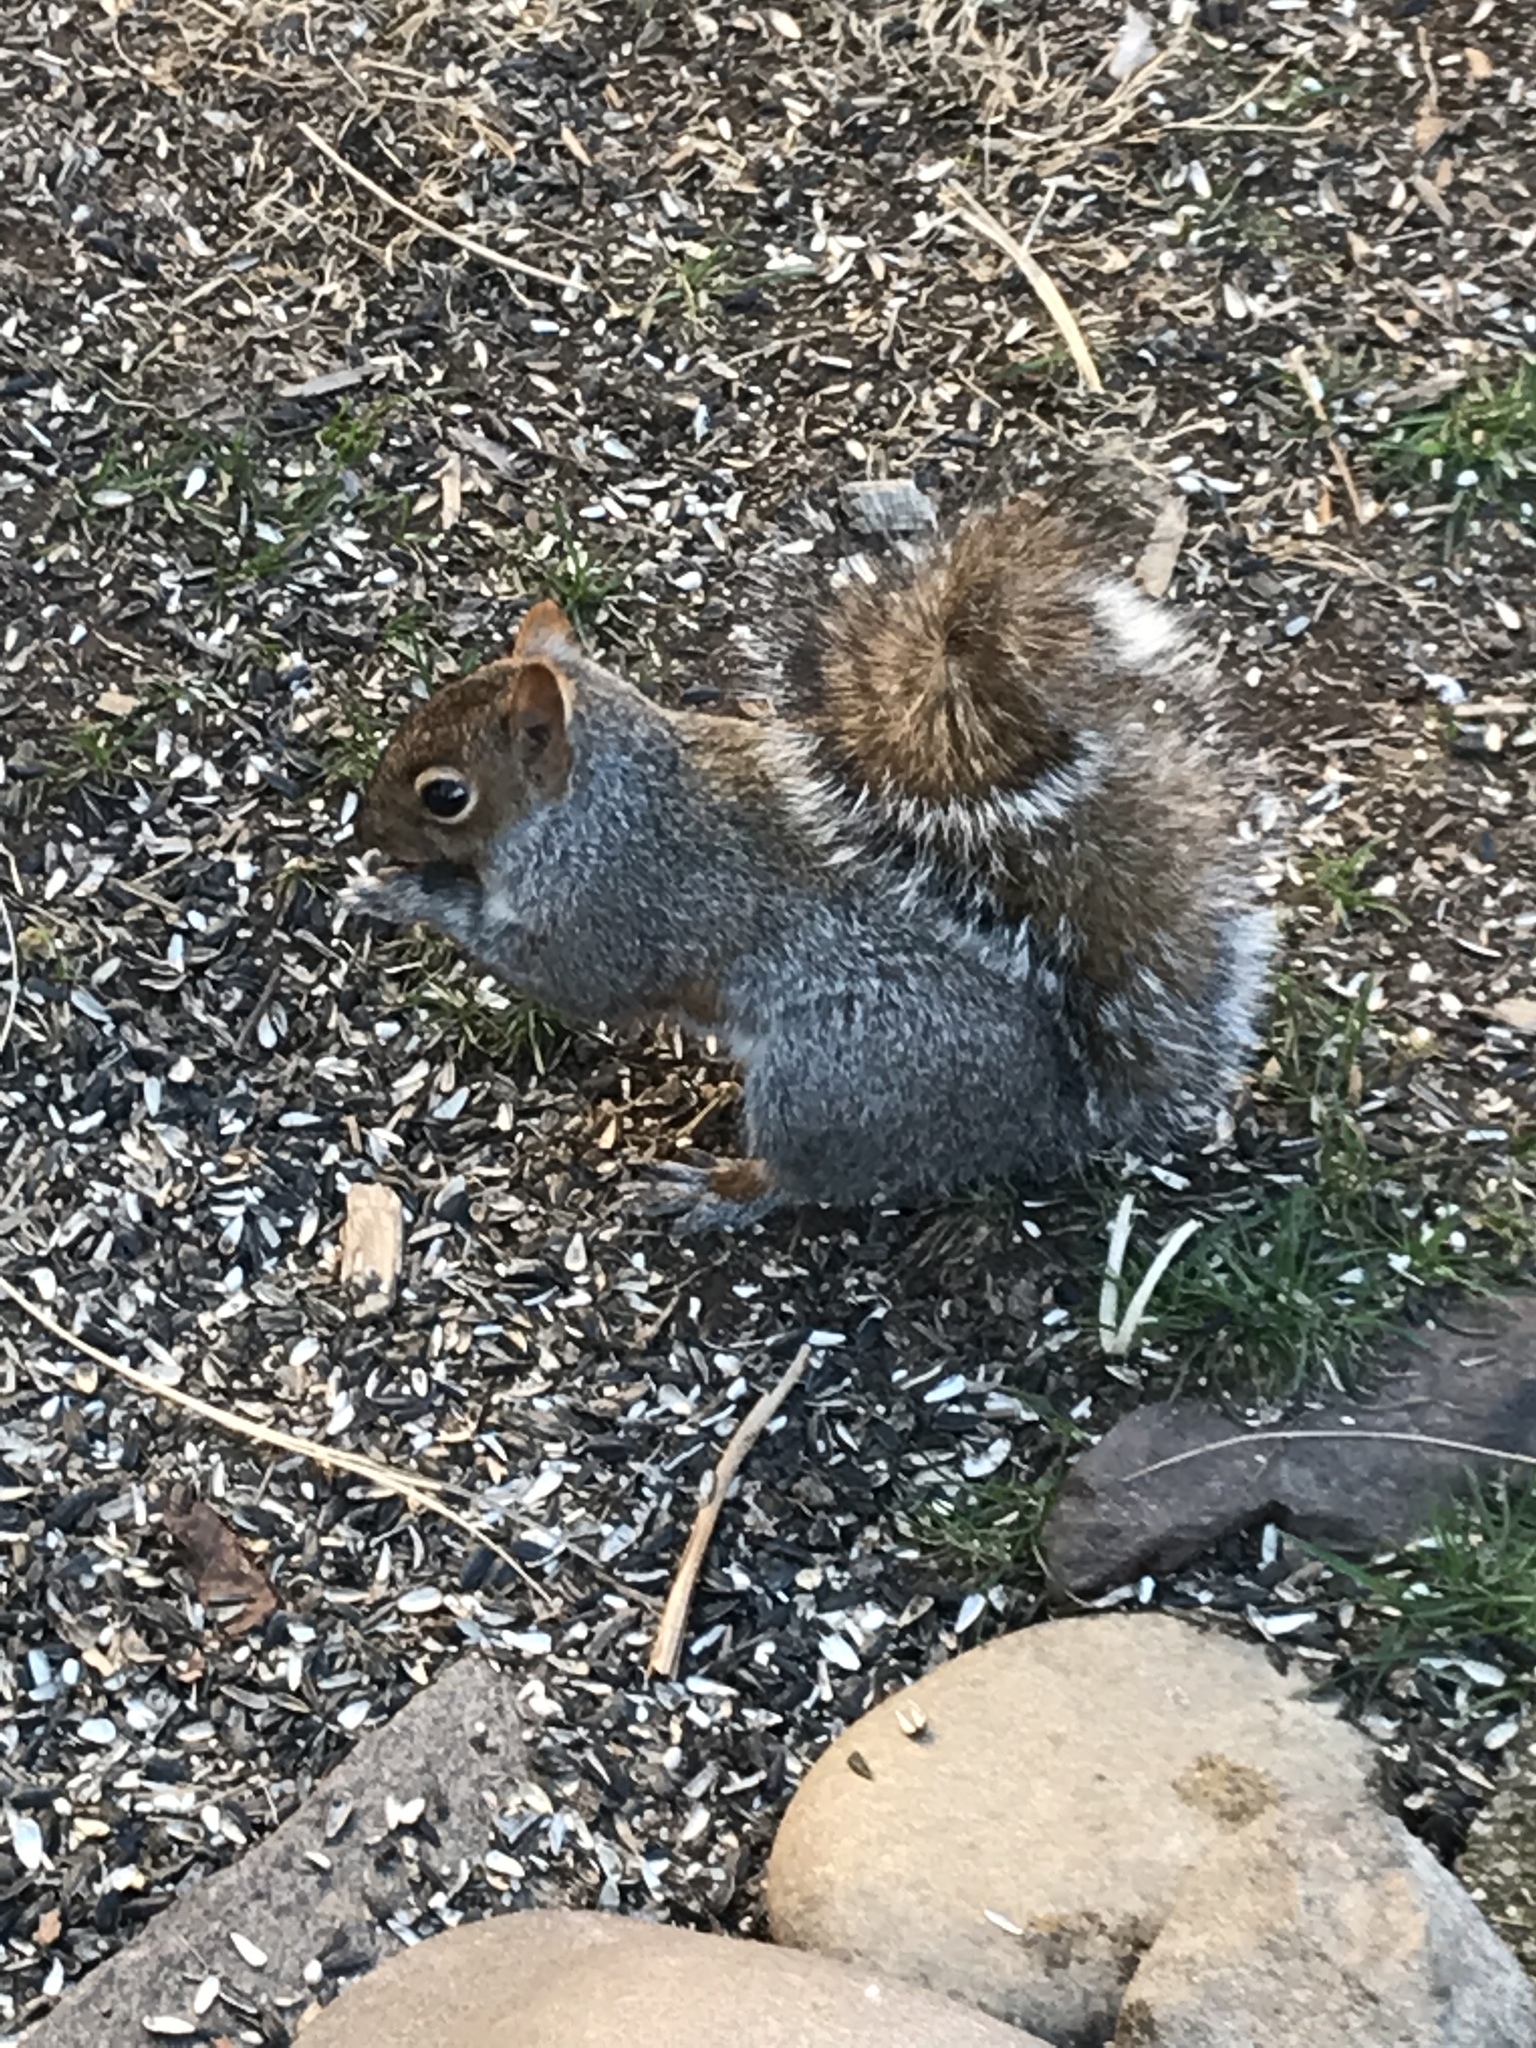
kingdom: Animalia
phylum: Chordata
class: Mammalia
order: Rodentia
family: Sciuridae
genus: Sciurus
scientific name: Sciurus carolinensis
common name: Eastern gray squirrel
